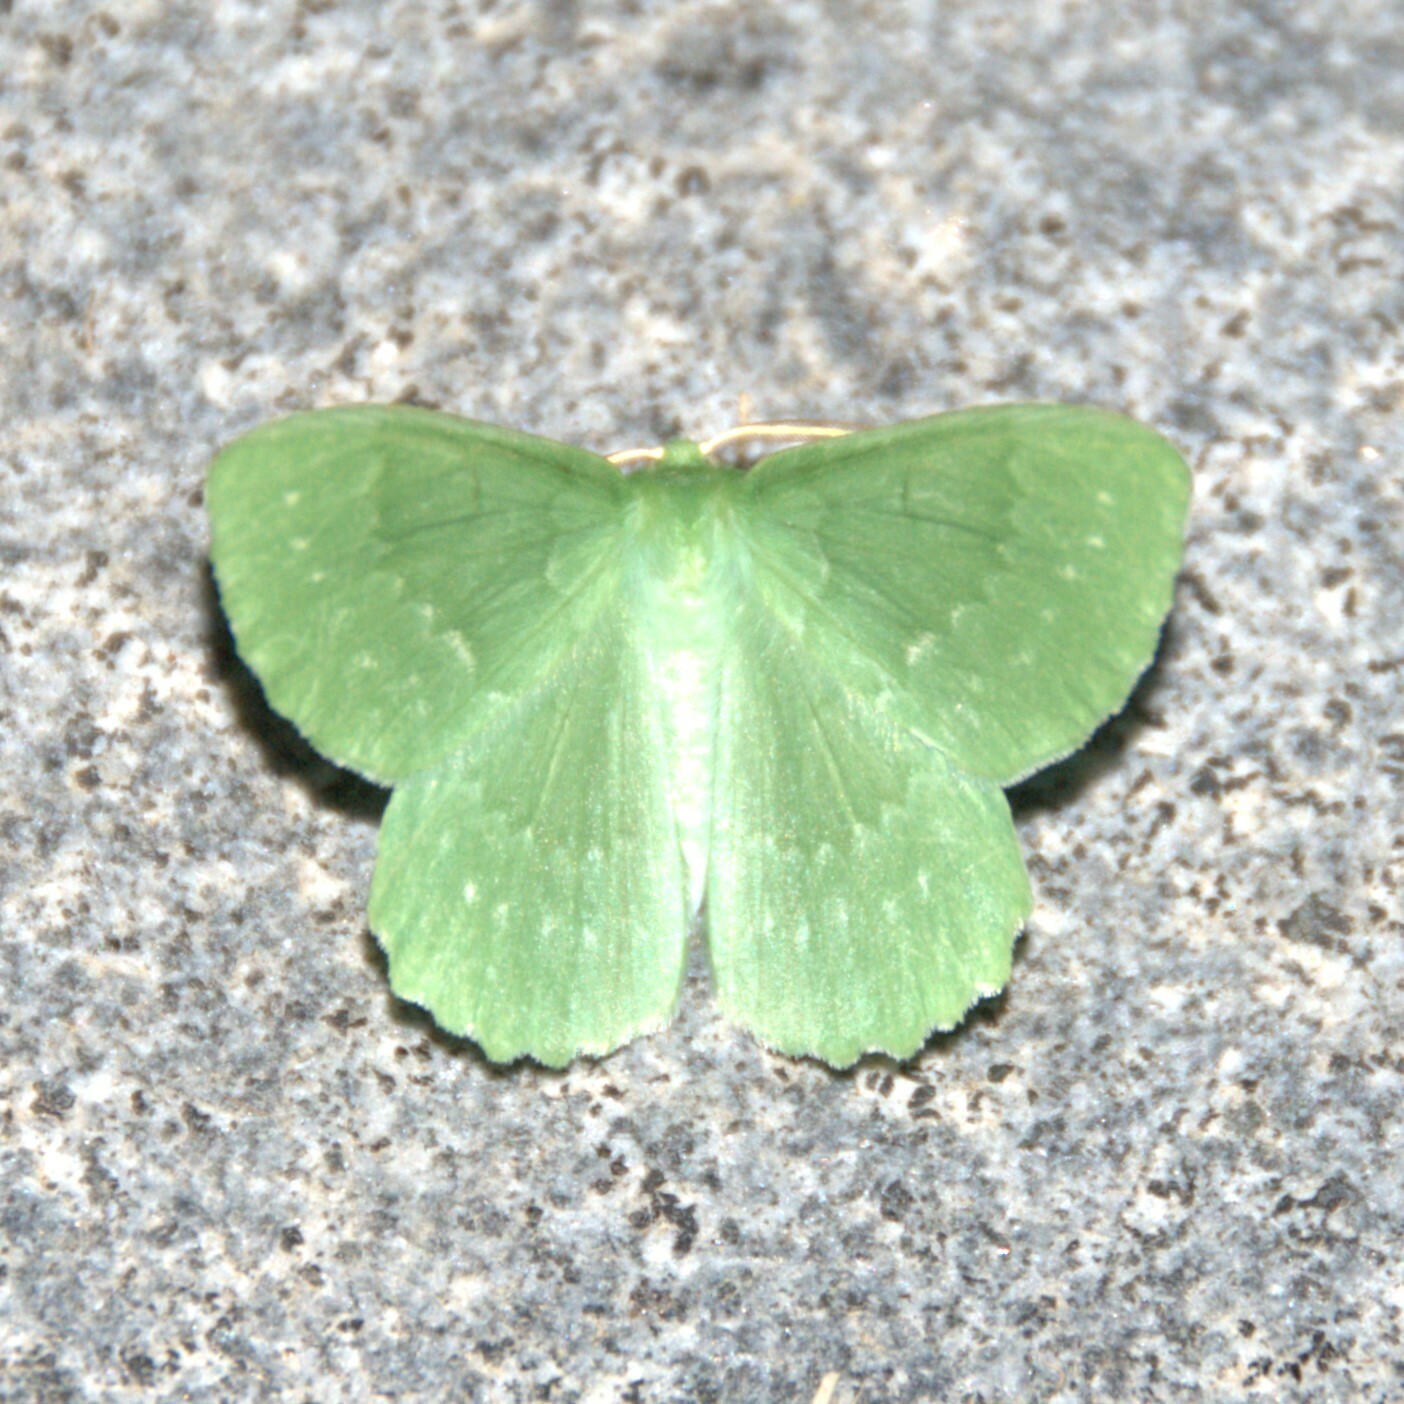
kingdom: Animalia
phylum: Arthropoda
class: Insecta
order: Lepidoptera
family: Geometridae
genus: Geometra
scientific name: Geometra papilionaria
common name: Large emerald
